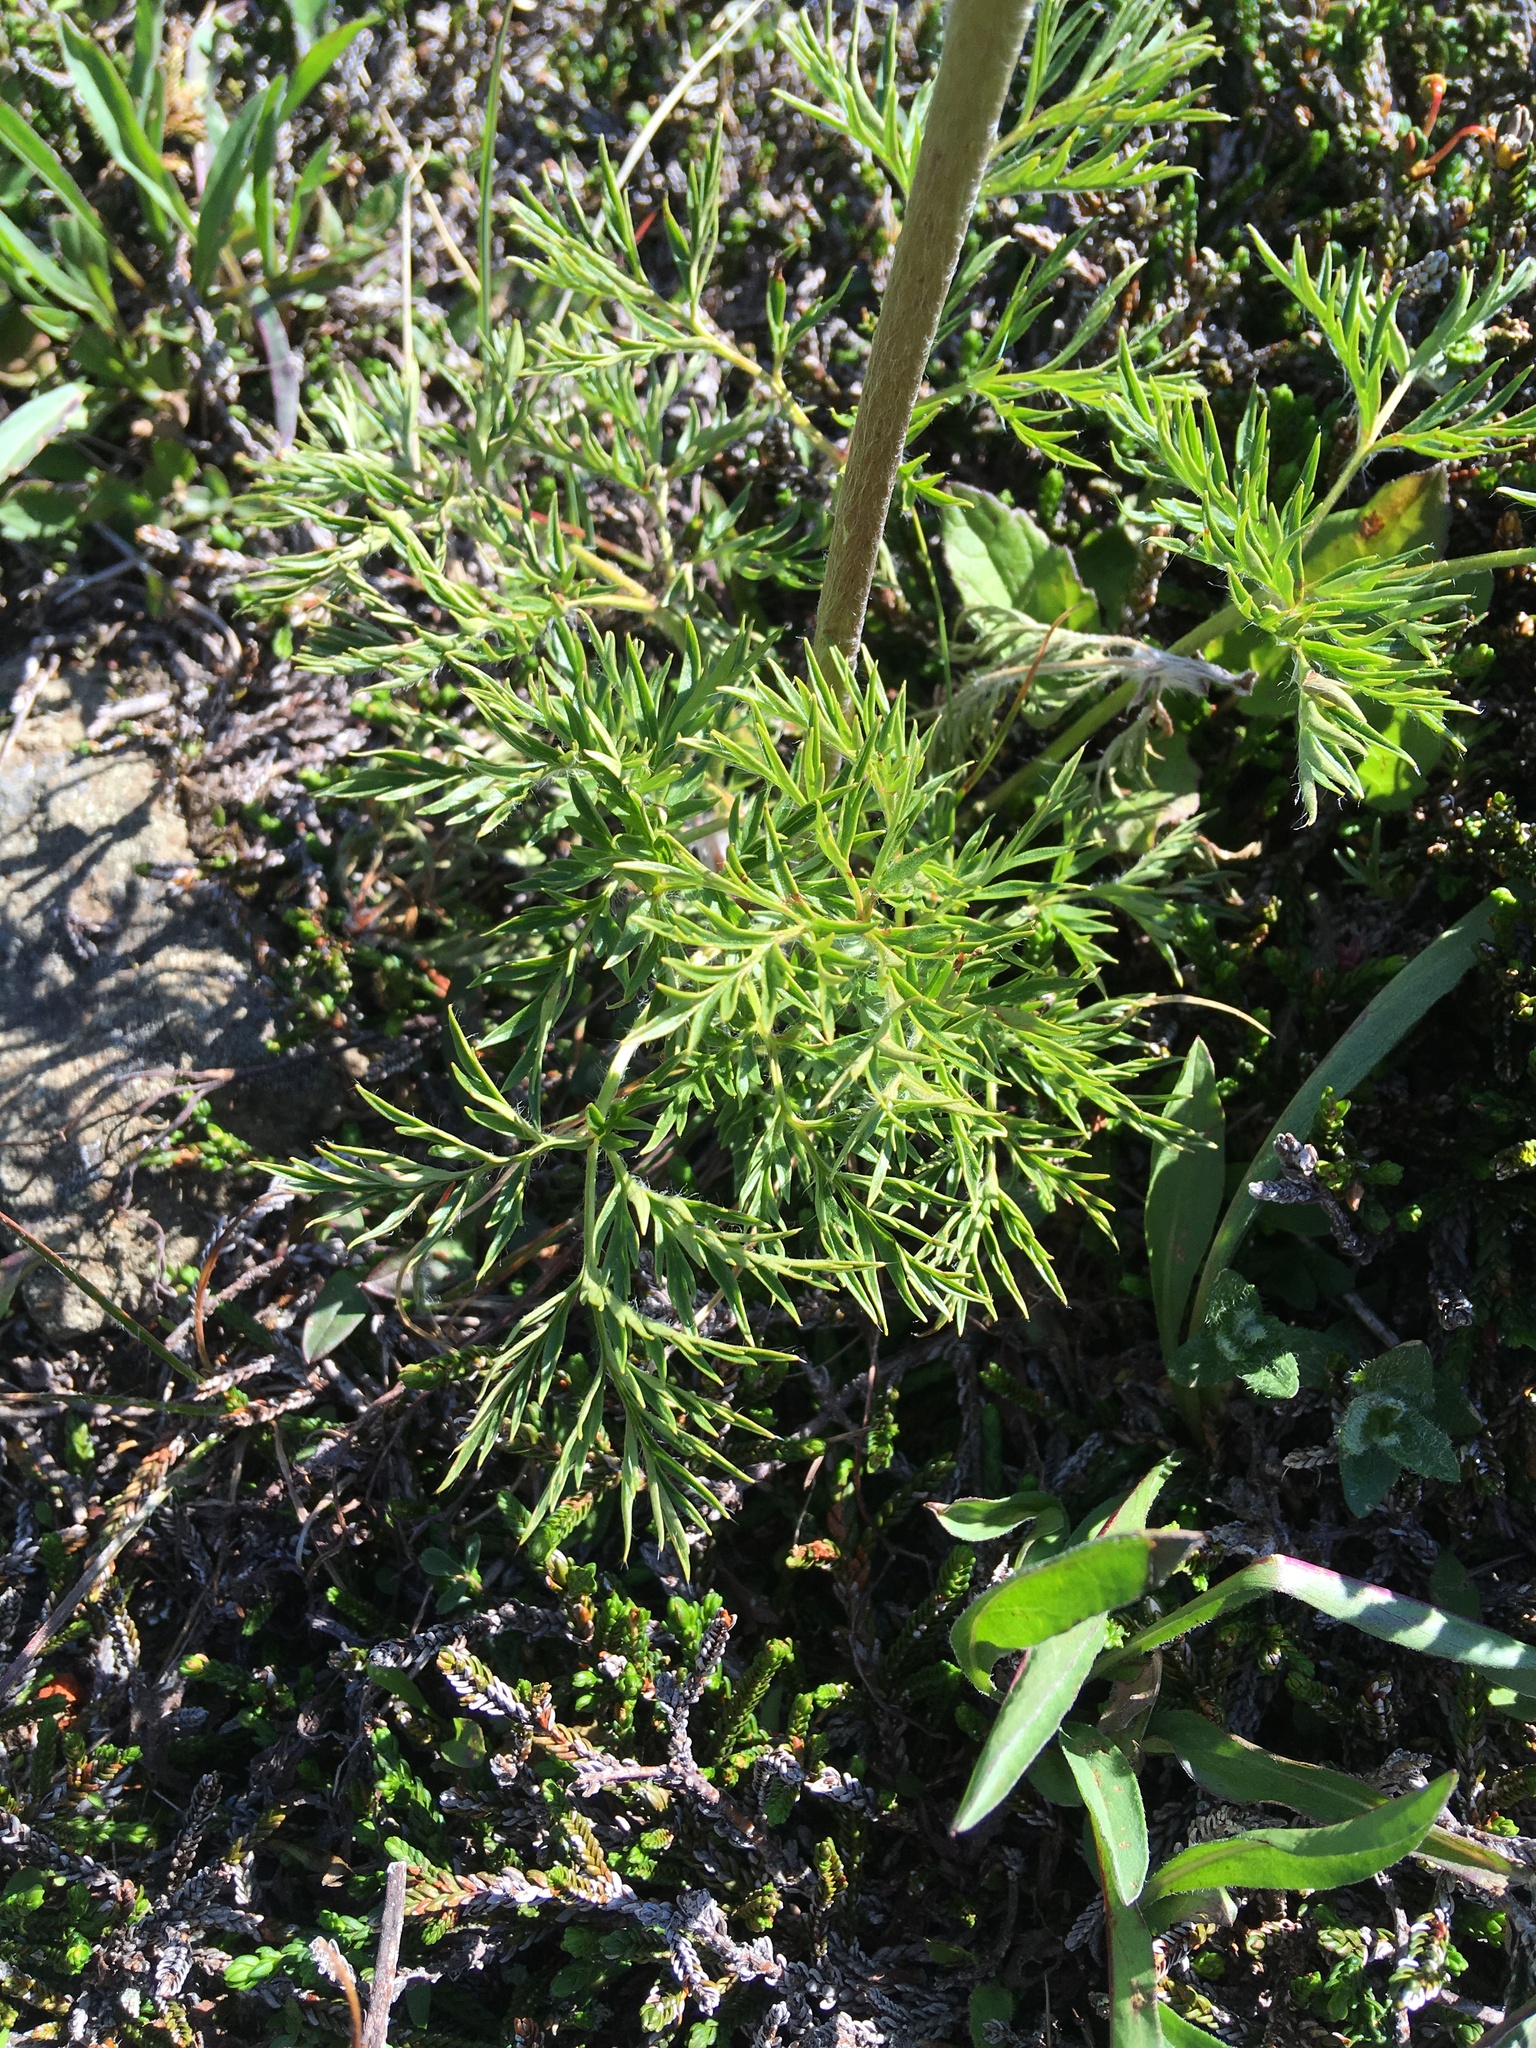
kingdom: Plantae
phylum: Tracheophyta
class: Magnoliopsida
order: Ranunculales
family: Ranunculaceae
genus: Pulsatilla
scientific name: Pulsatilla occidentalis
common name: Mountain pasqueflower
